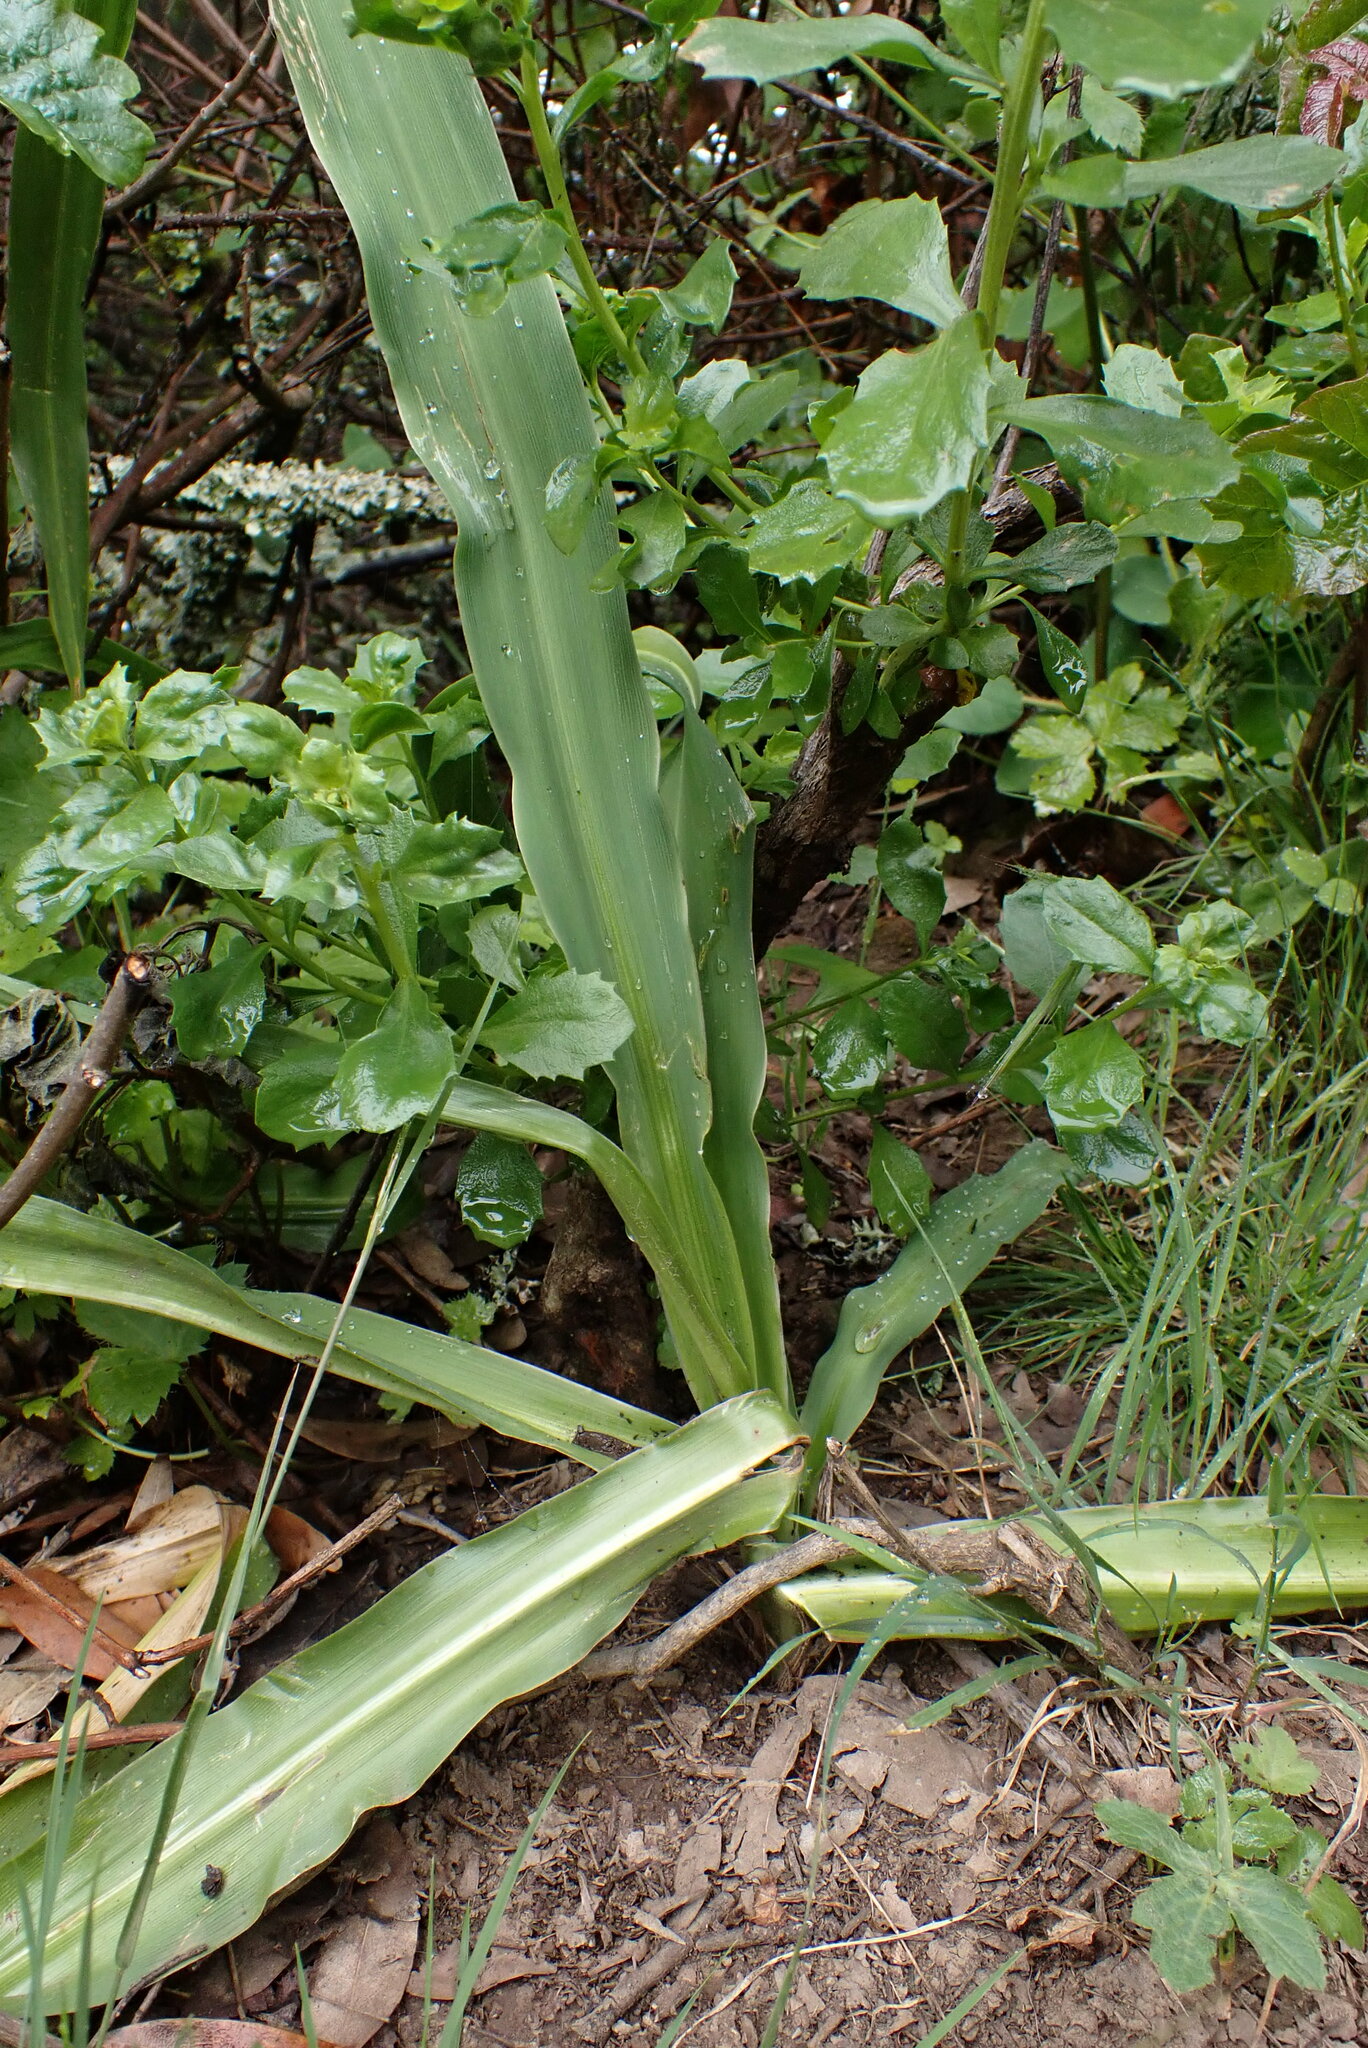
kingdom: Plantae
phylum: Tracheophyta
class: Liliopsida
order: Asparagales
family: Asparagaceae
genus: Chlorogalum
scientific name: Chlorogalum pomeridianum
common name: Amole
